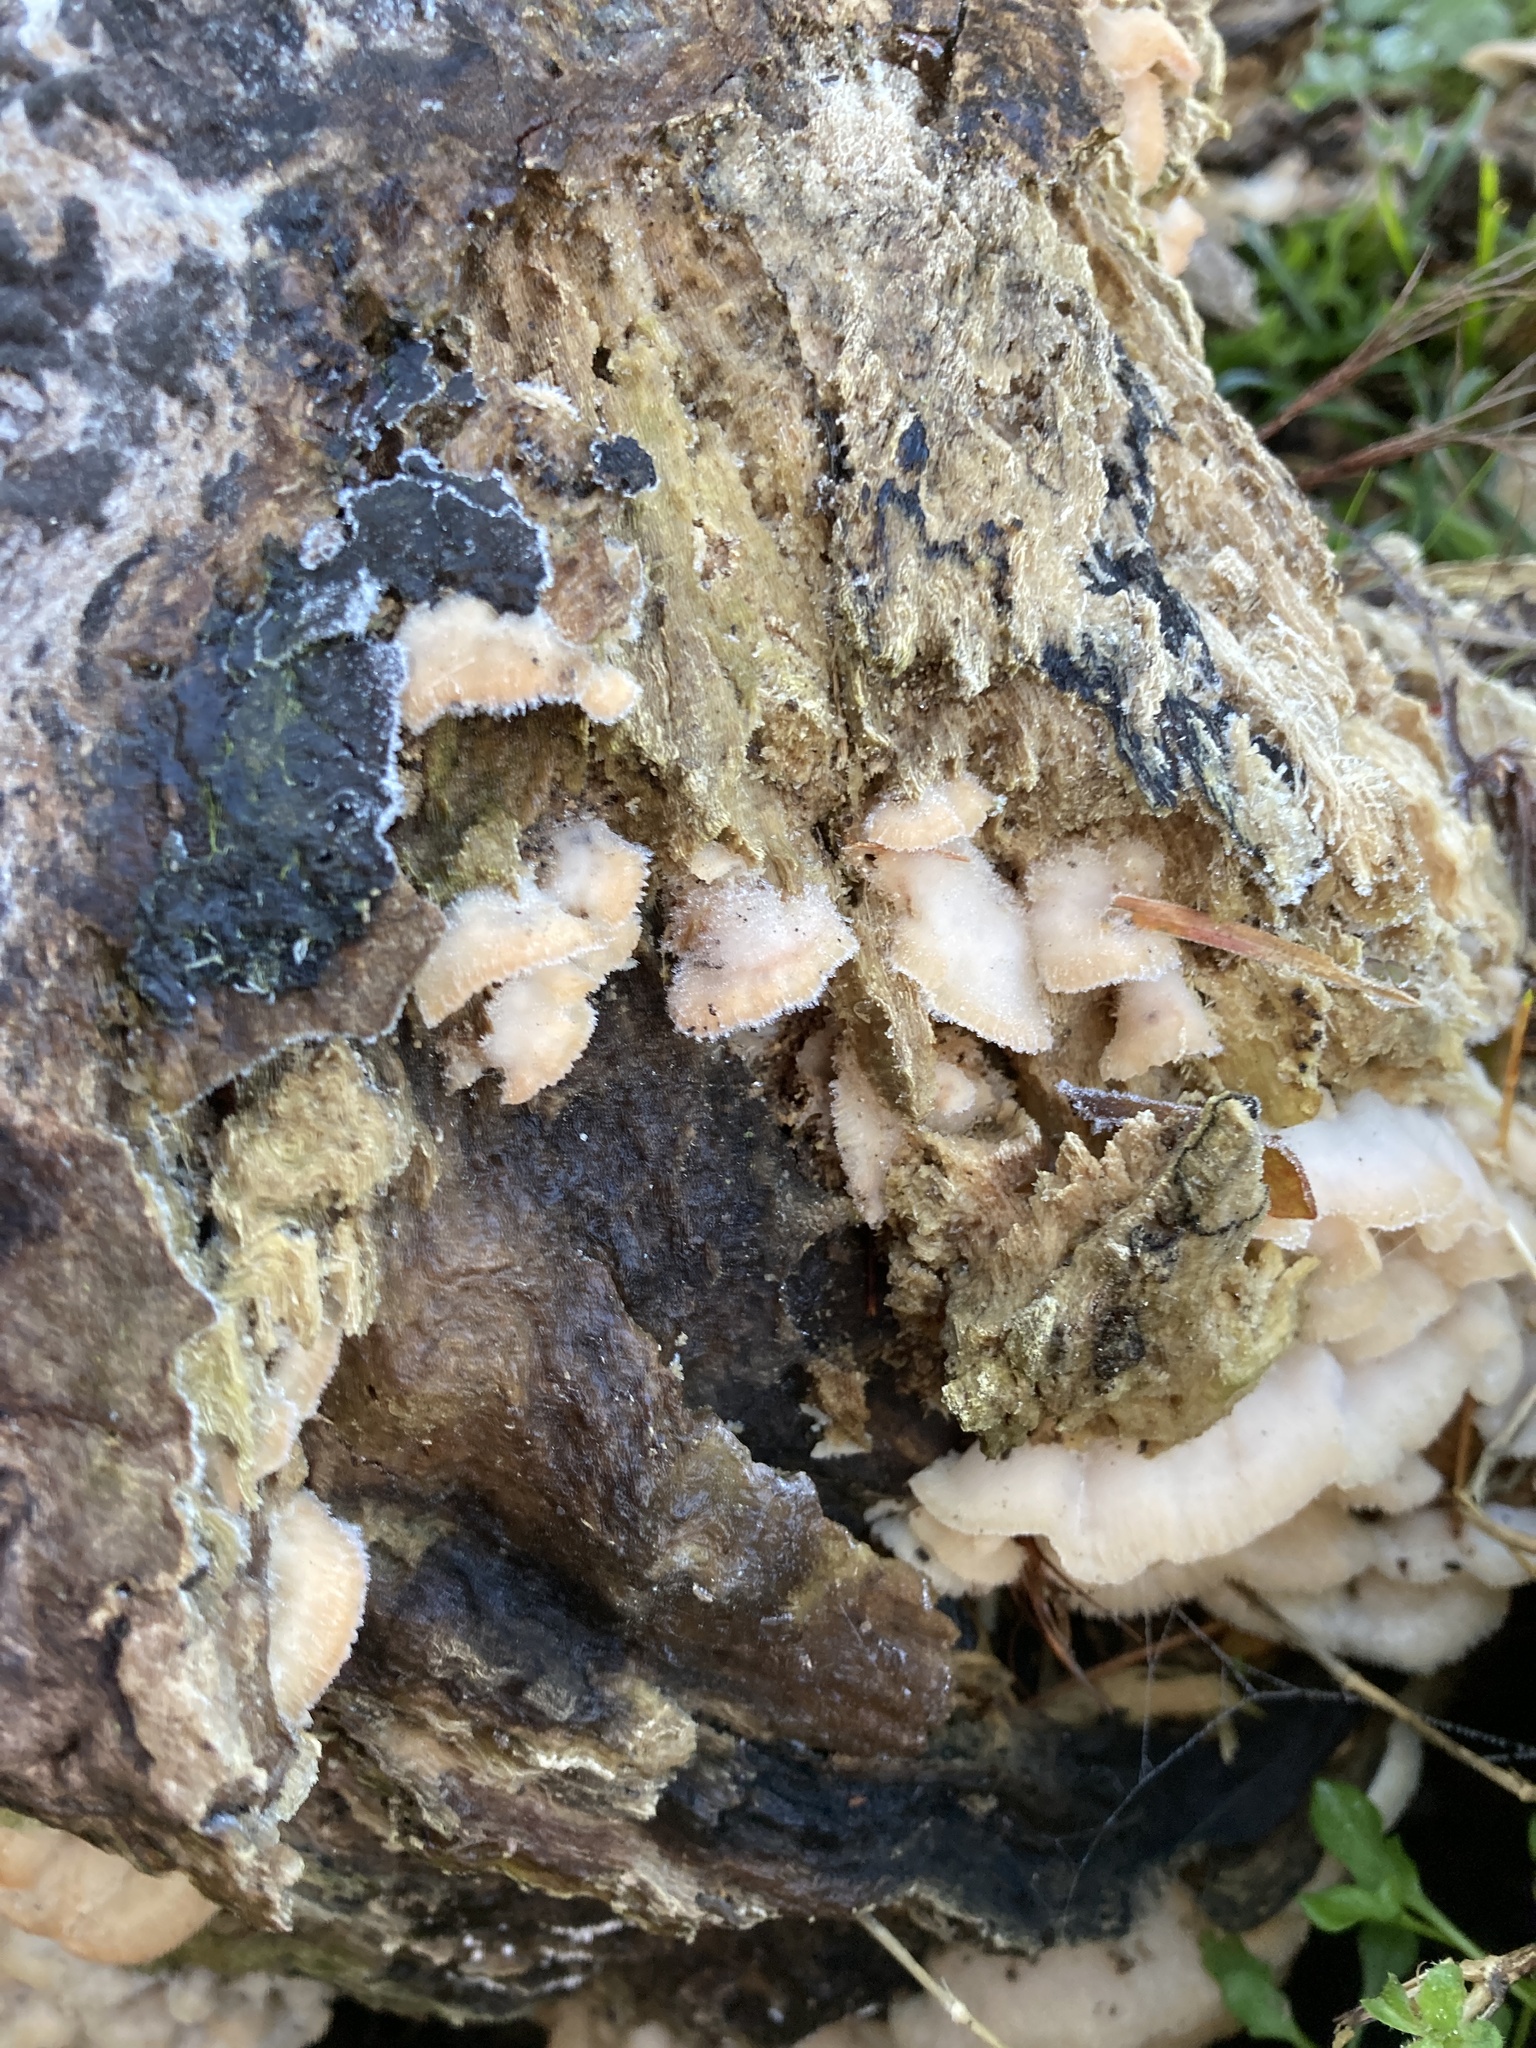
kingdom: Fungi
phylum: Basidiomycota
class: Agaricomycetes
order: Polyporales
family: Meruliaceae
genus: Phlebia
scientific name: Phlebia tremellosa
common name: Jelly rot
